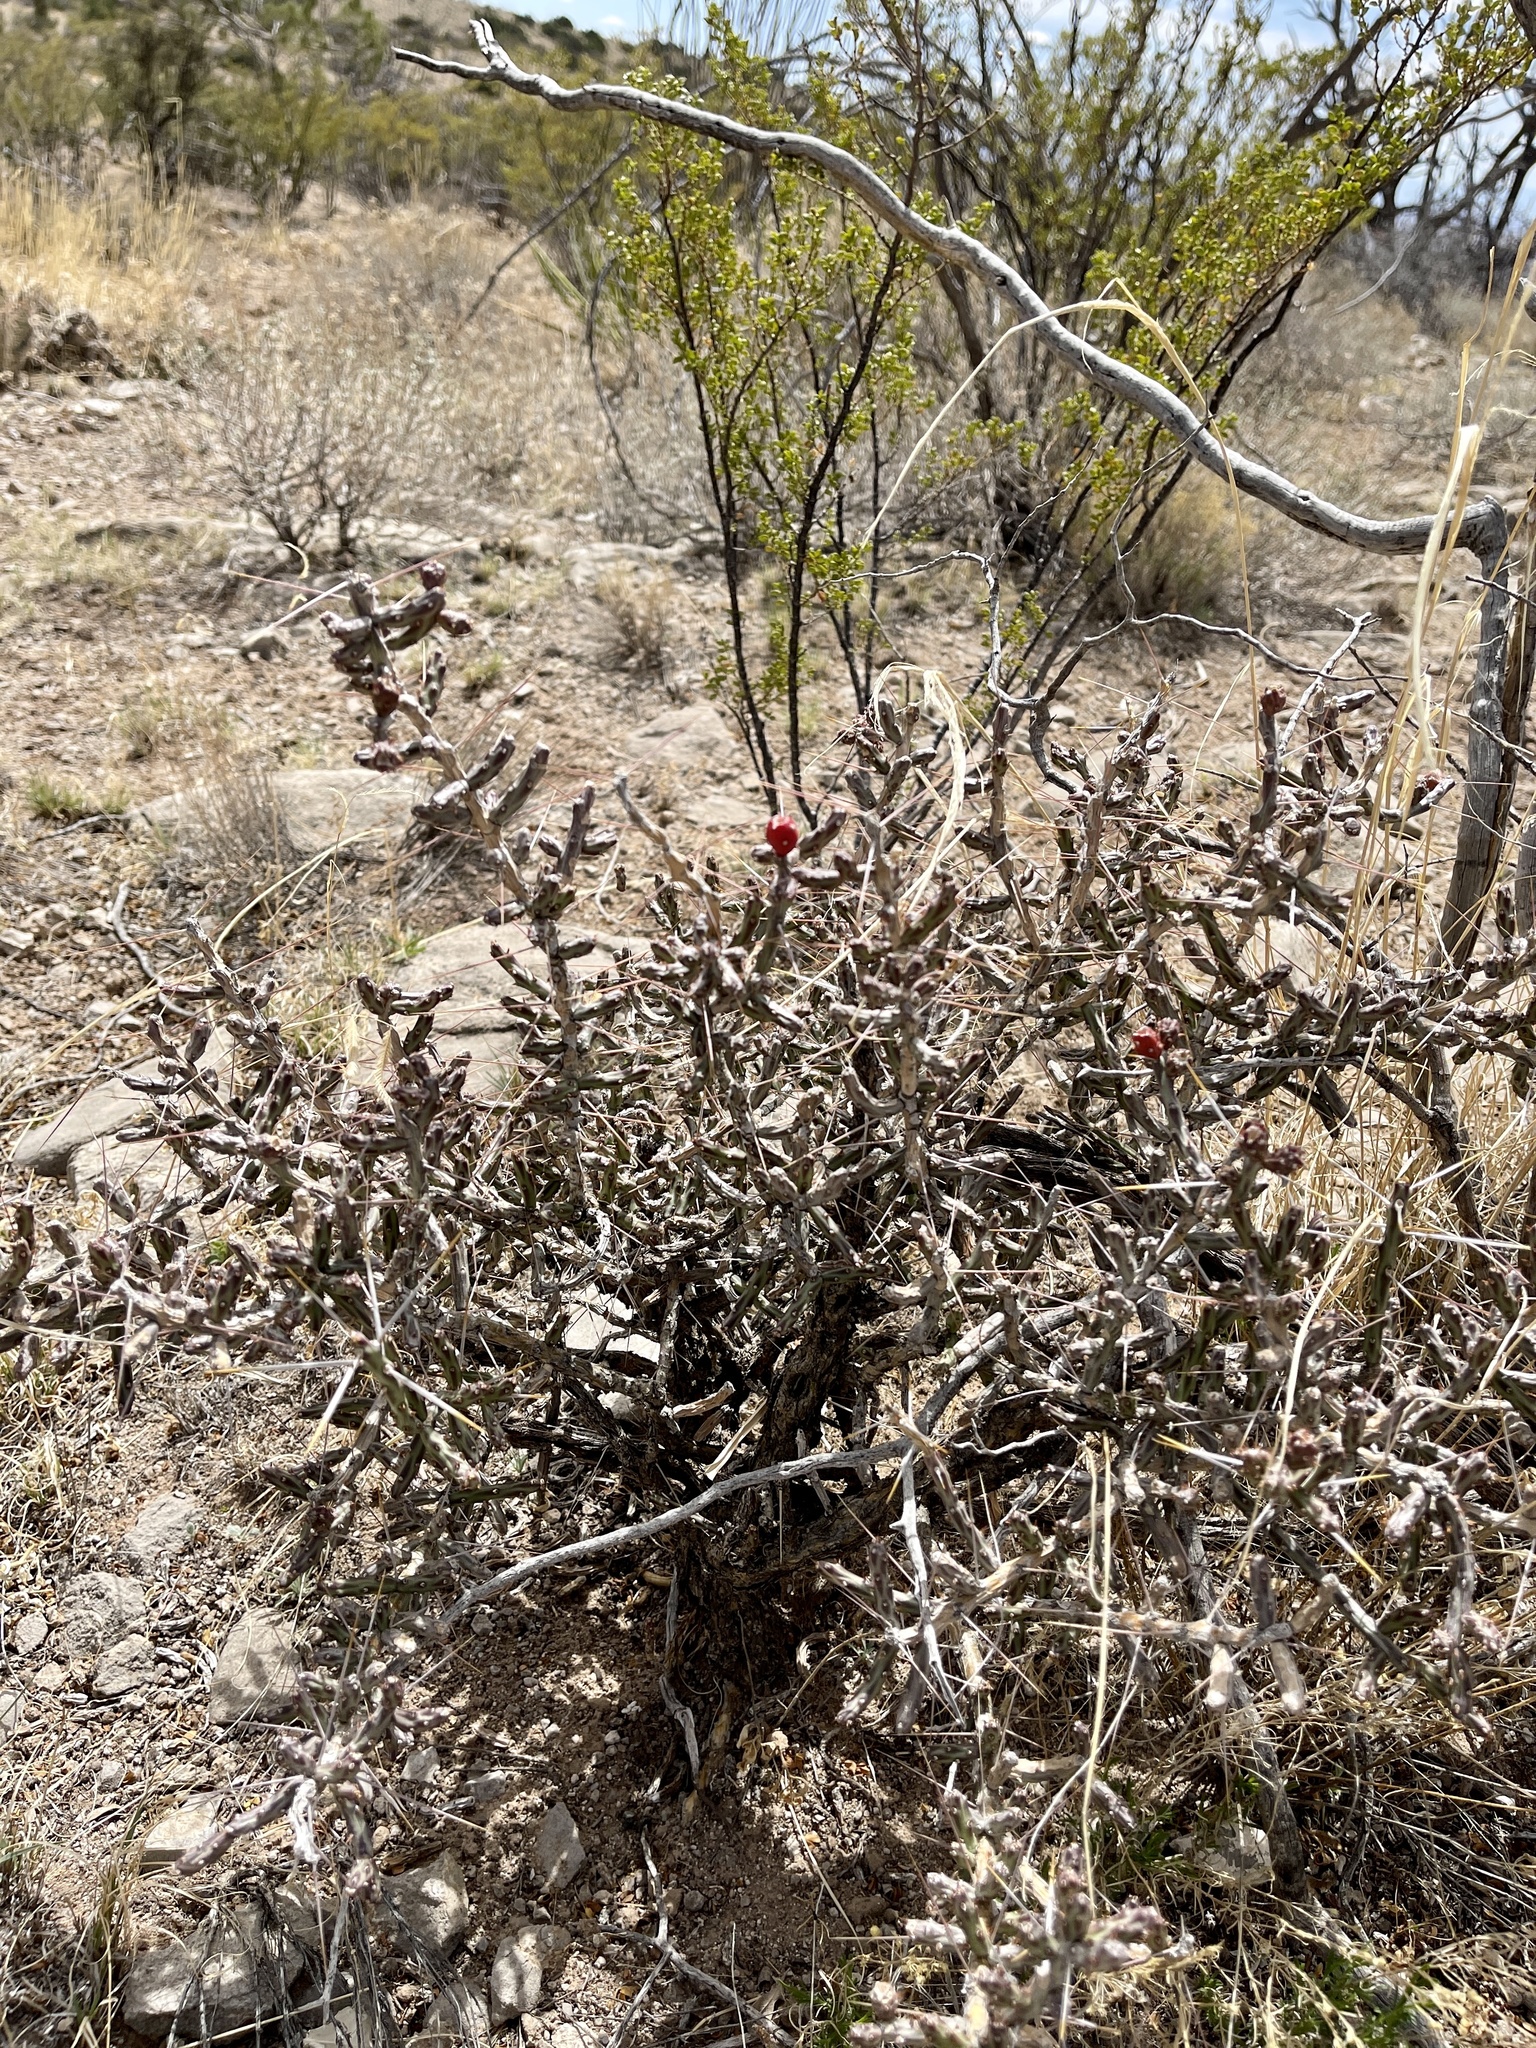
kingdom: Plantae
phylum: Tracheophyta
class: Magnoliopsida
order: Caryophyllales
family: Cactaceae
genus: Cylindropuntia
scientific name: Cylindropuntia leptocaulis
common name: Christmas cactus
